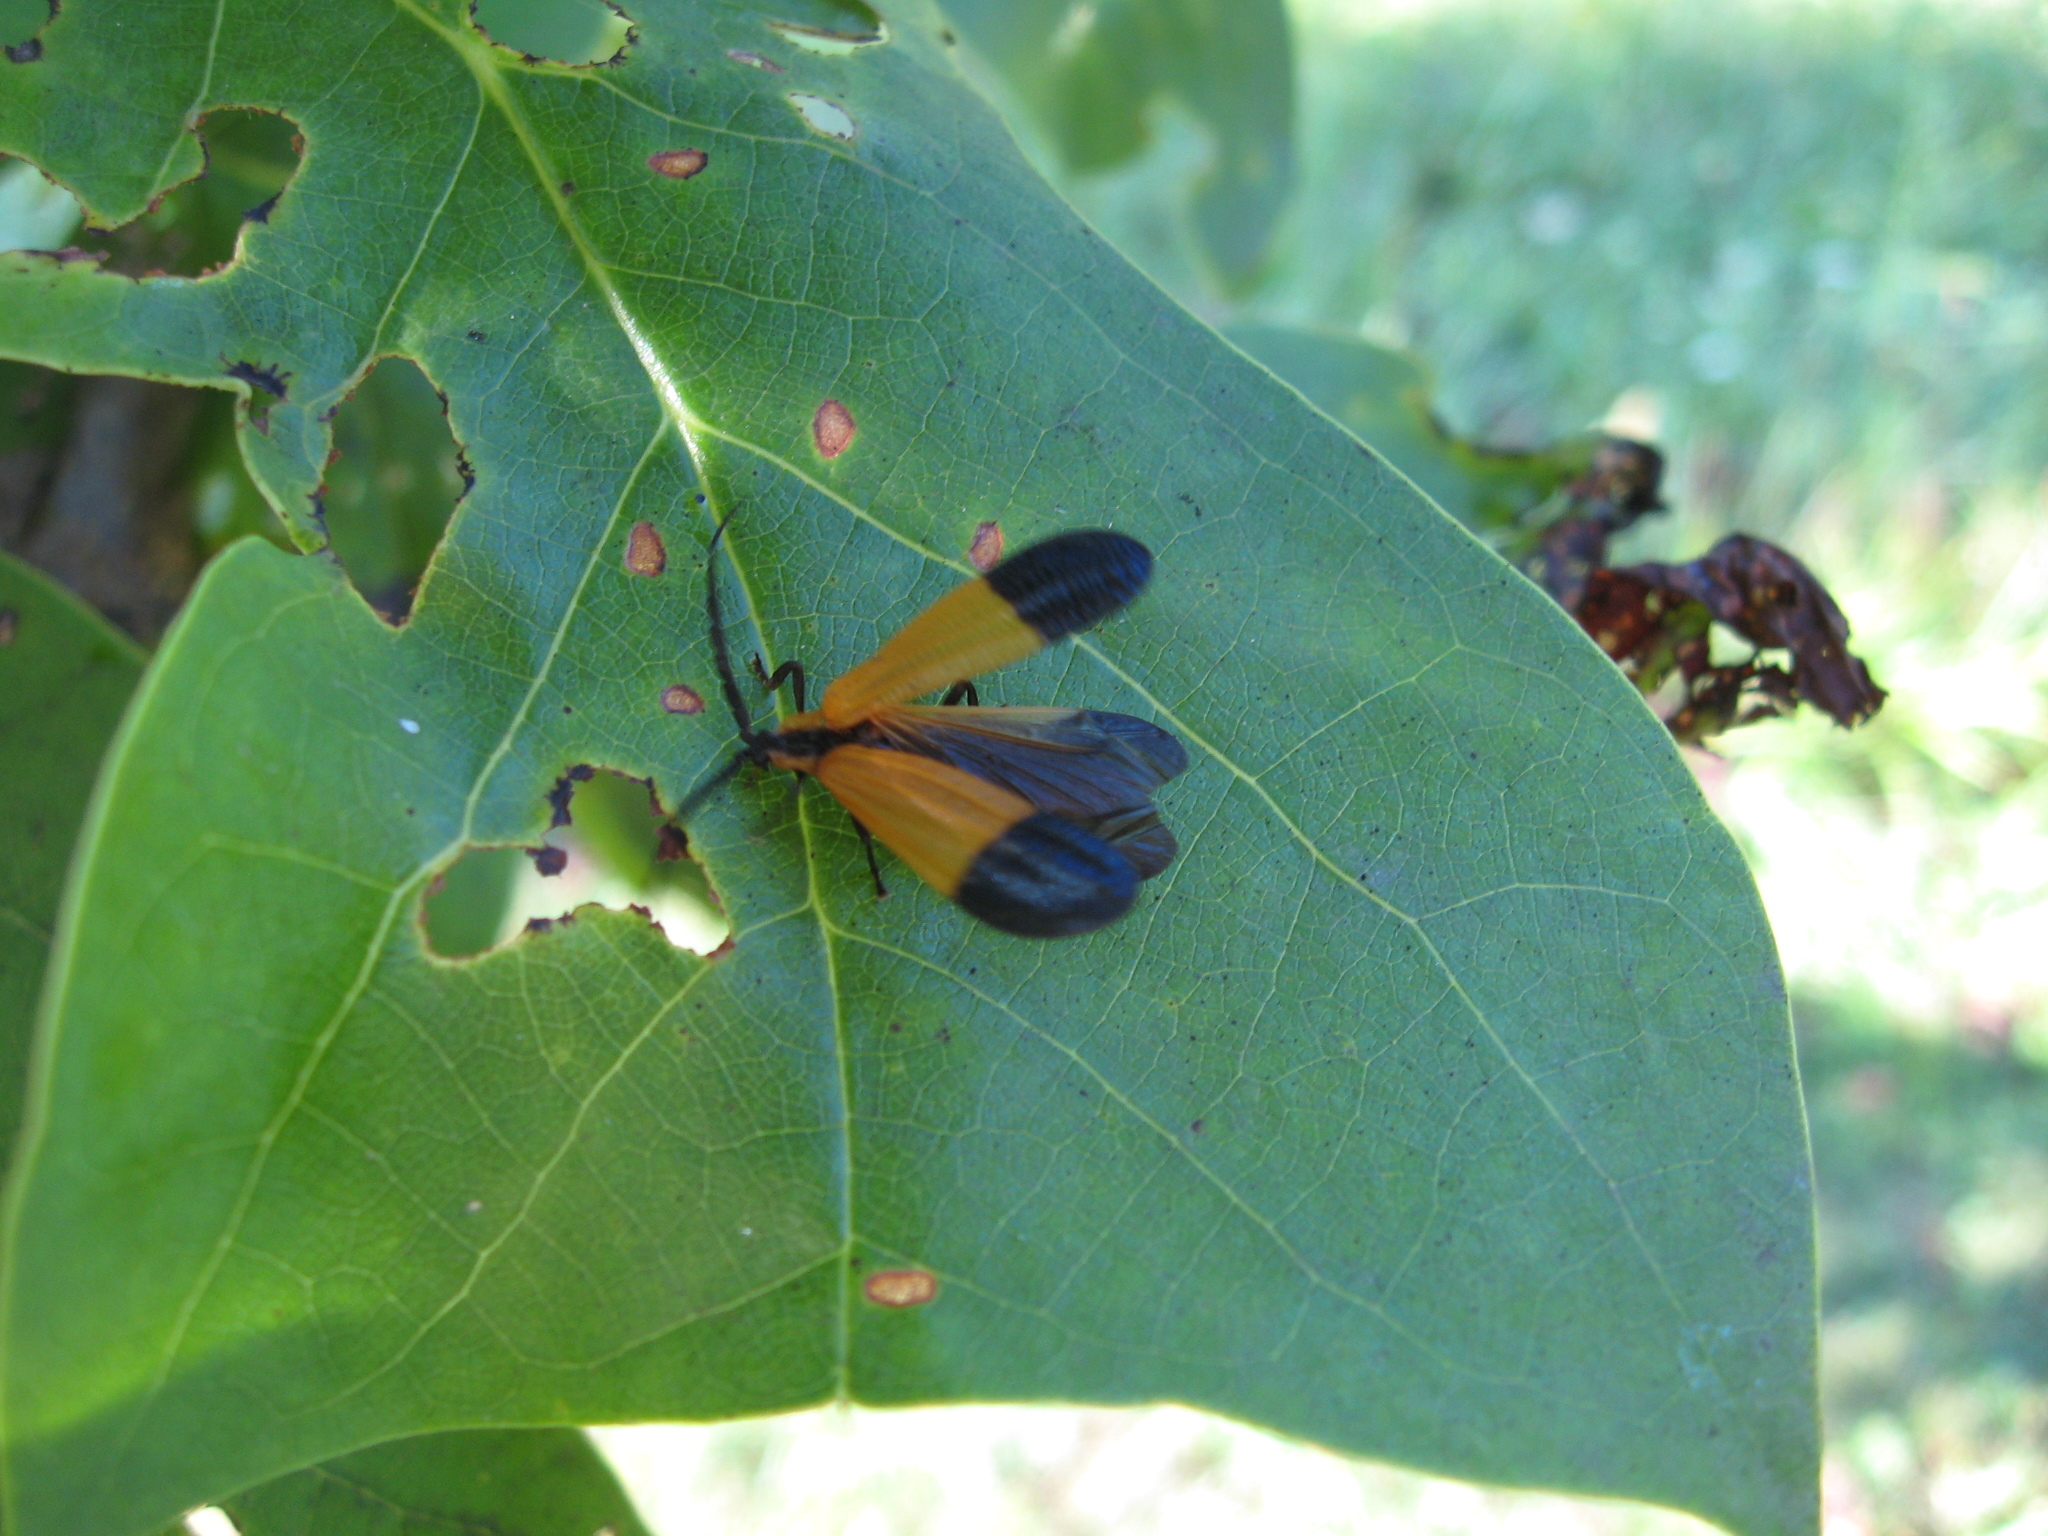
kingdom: Animalia
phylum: Arthropoda
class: Insecta
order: Coleoptera
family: Lycidae
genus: Calopteron
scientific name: Calopteron terminale
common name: End band net-winged beetle
